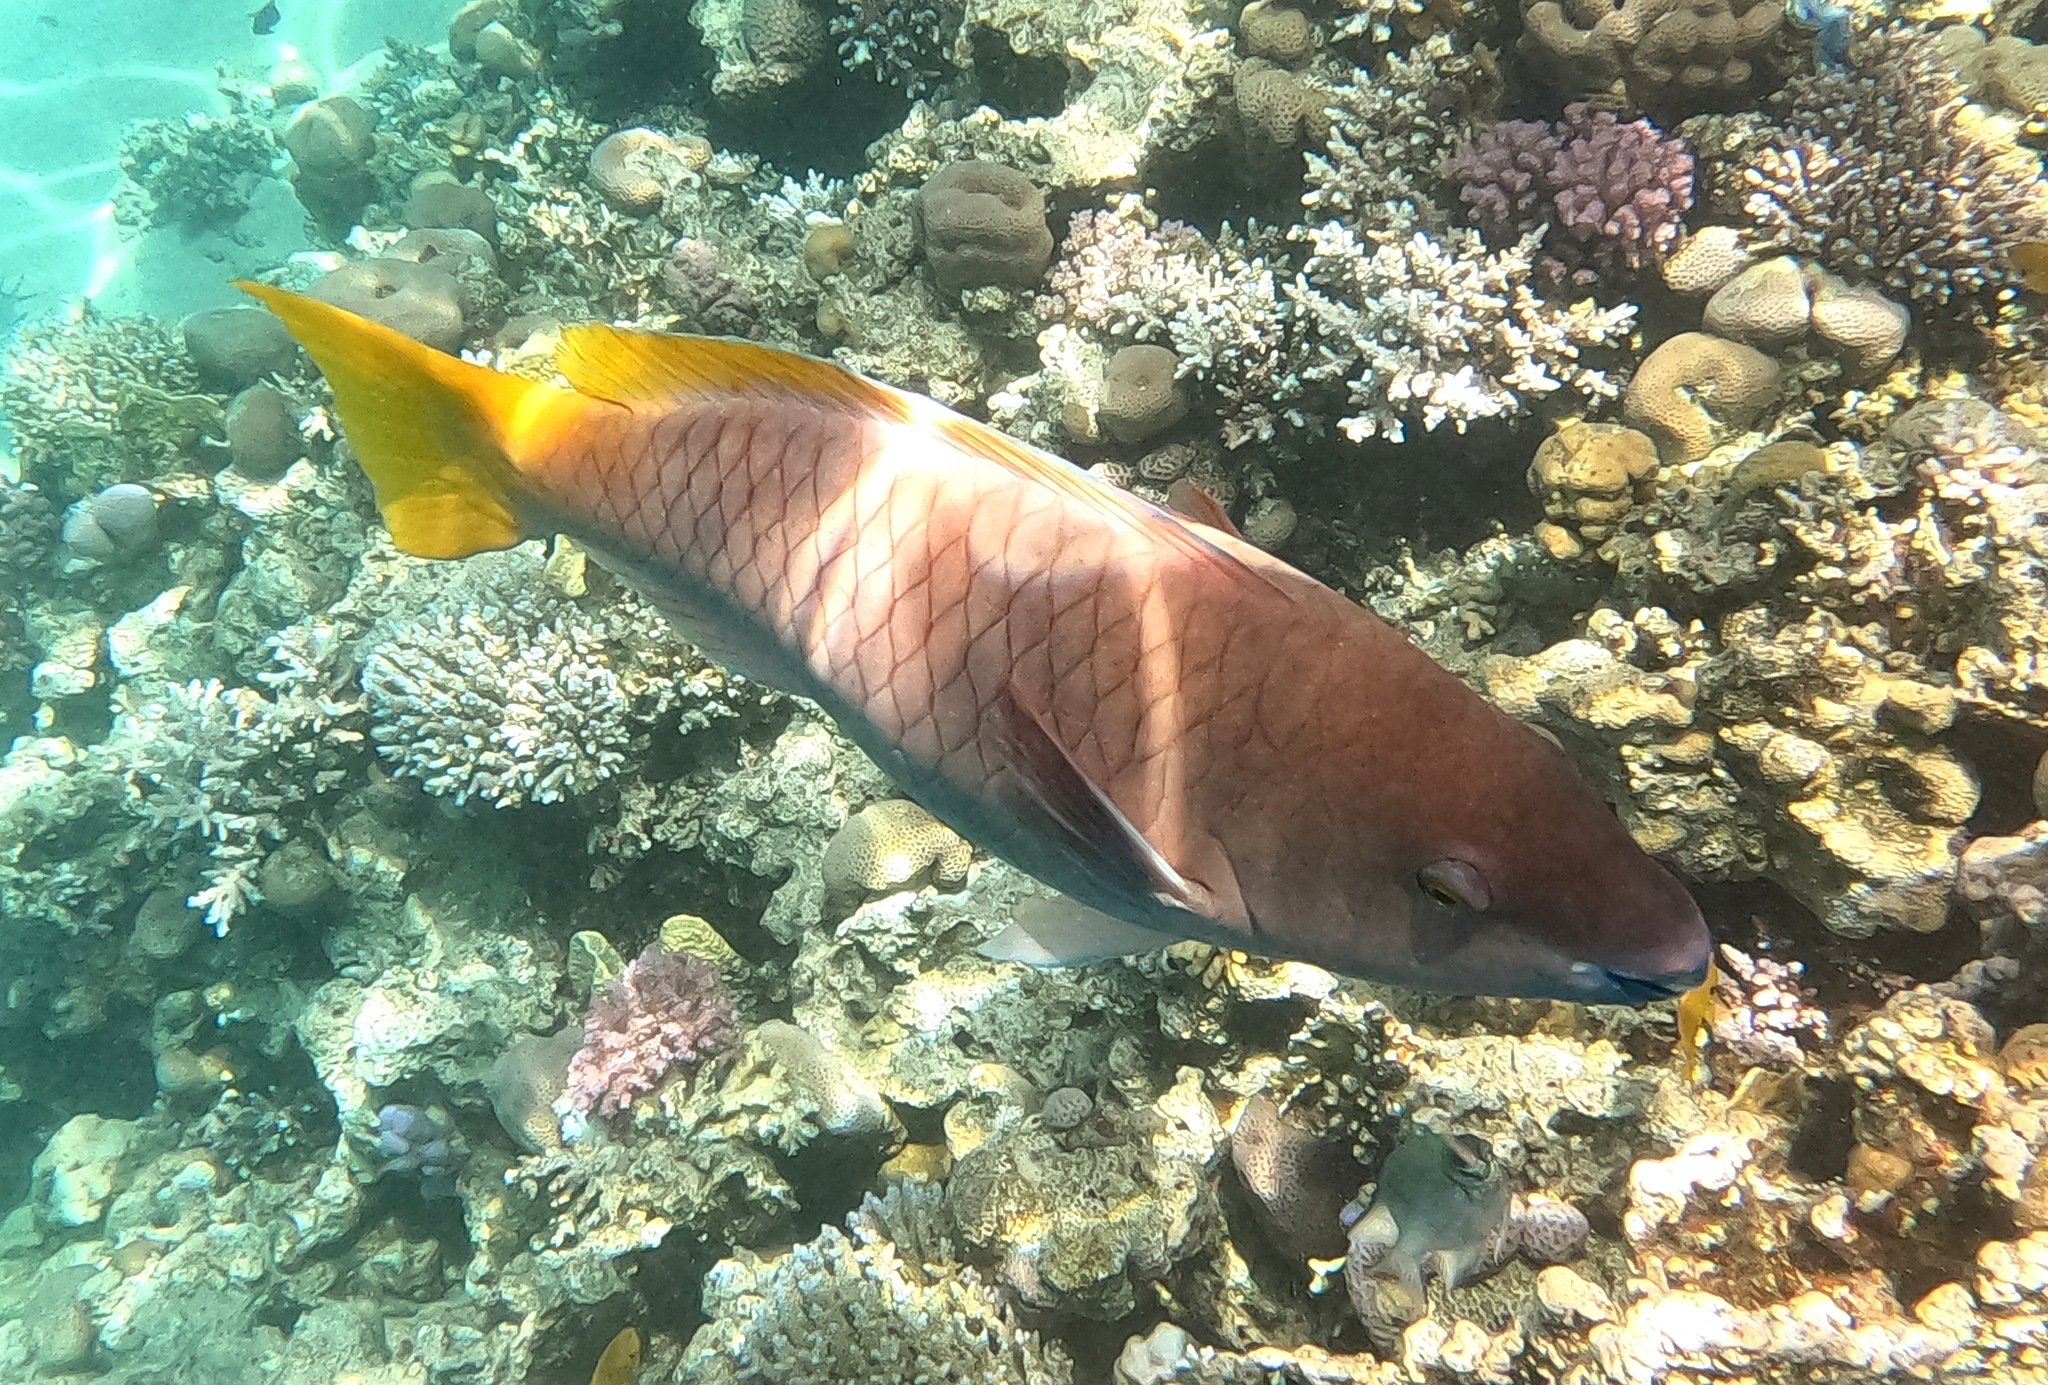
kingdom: Animalia
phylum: Chordata
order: Perciformes
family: Scaridae
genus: Scarus
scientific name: Scarus ferrugineus
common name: Rusty parrotfish
